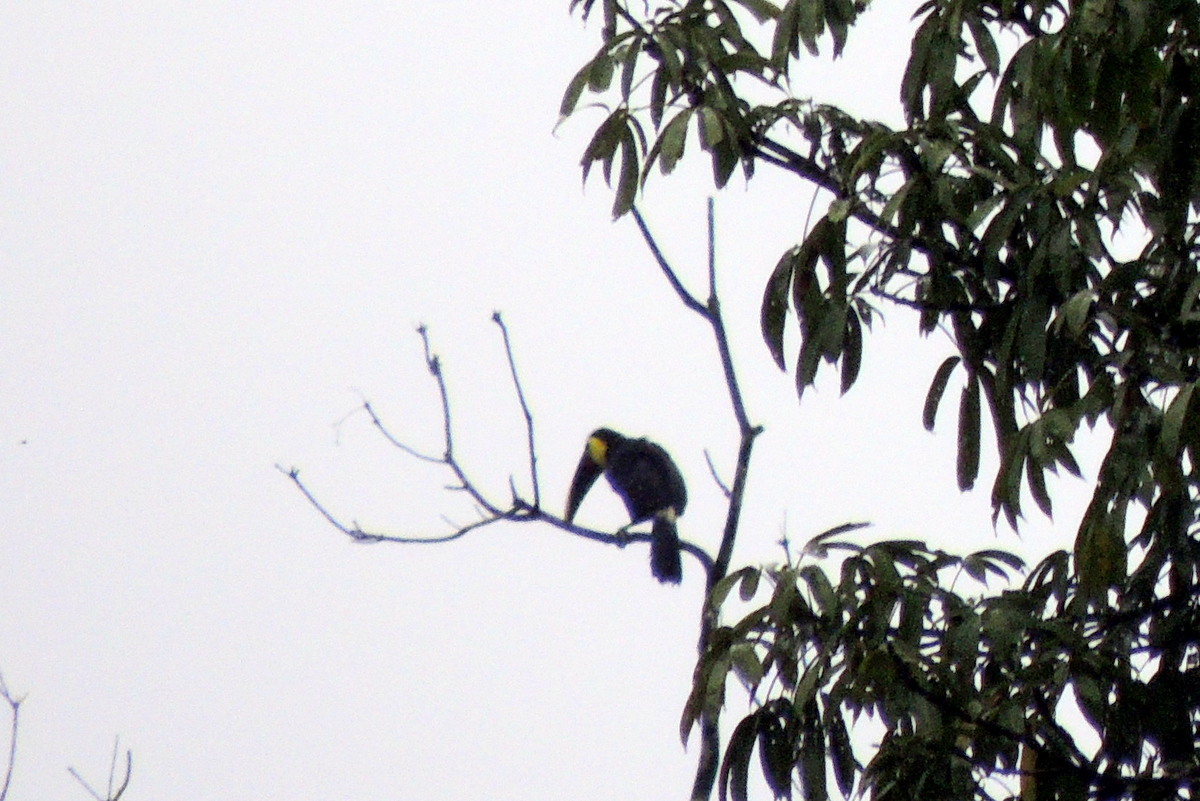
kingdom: Animalia
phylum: Chordata
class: Aves
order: Piciformes
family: Ramphastidae
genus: Ramphastos
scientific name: Ramphastos ambiguus
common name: Yellow-throated toucan
